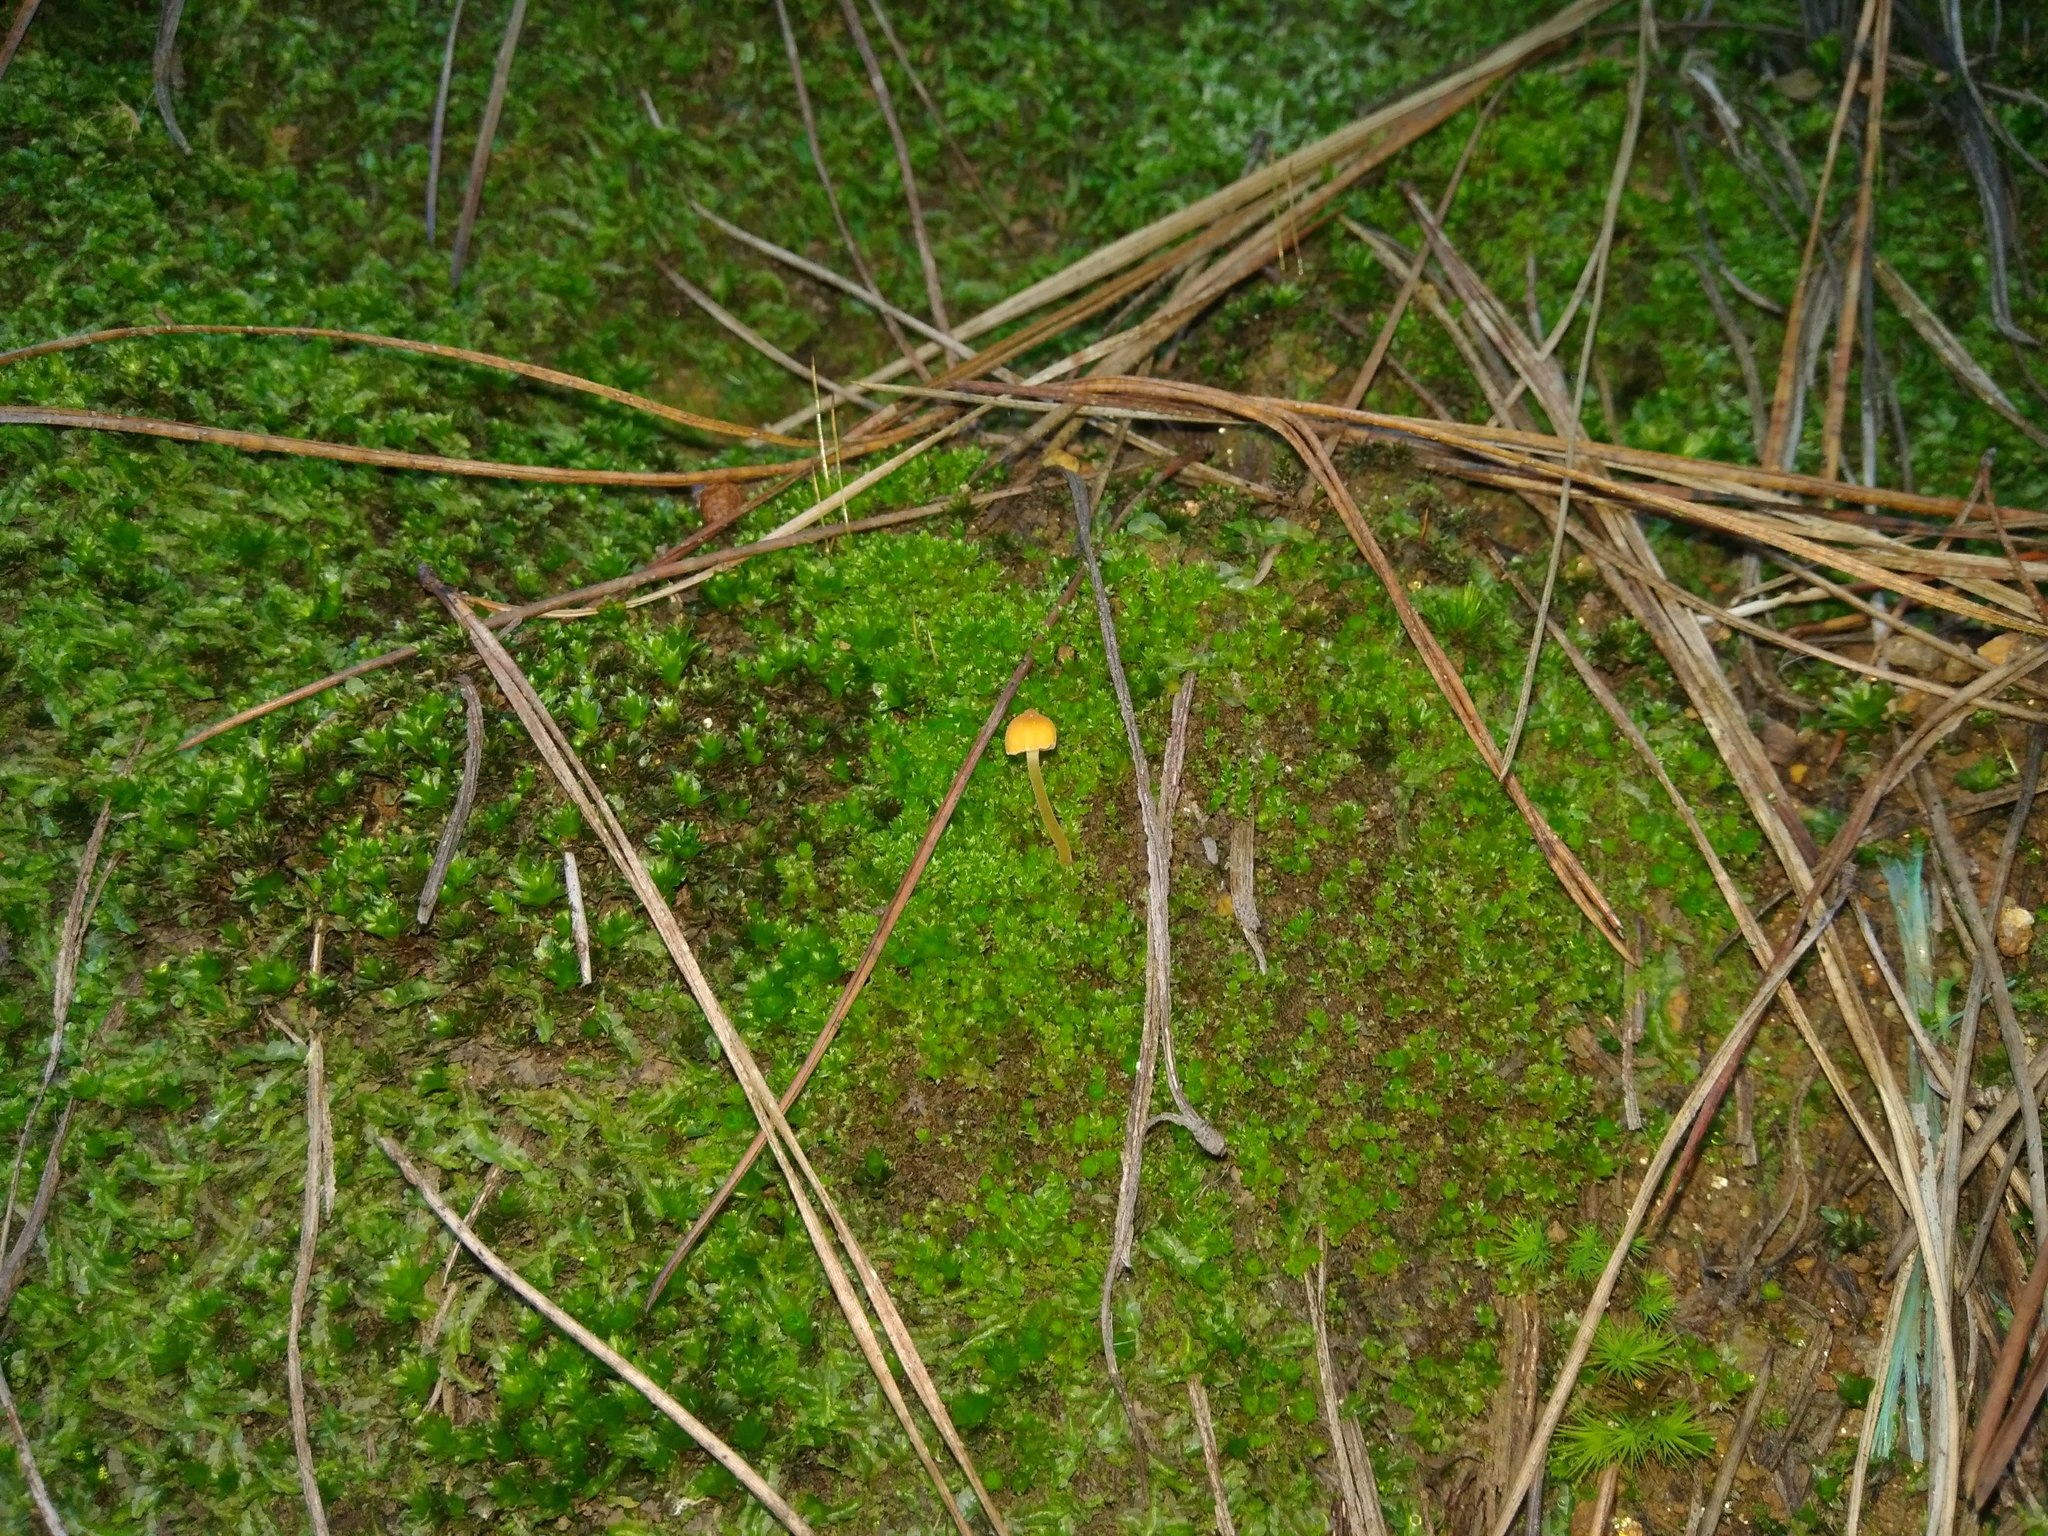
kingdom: Fungi
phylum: Basidiomycota
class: Agaricomycetes
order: Hymenochaetales
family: Rickenellaceae
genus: Rickenella
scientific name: Rickenella fibula
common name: Orange mosscap
